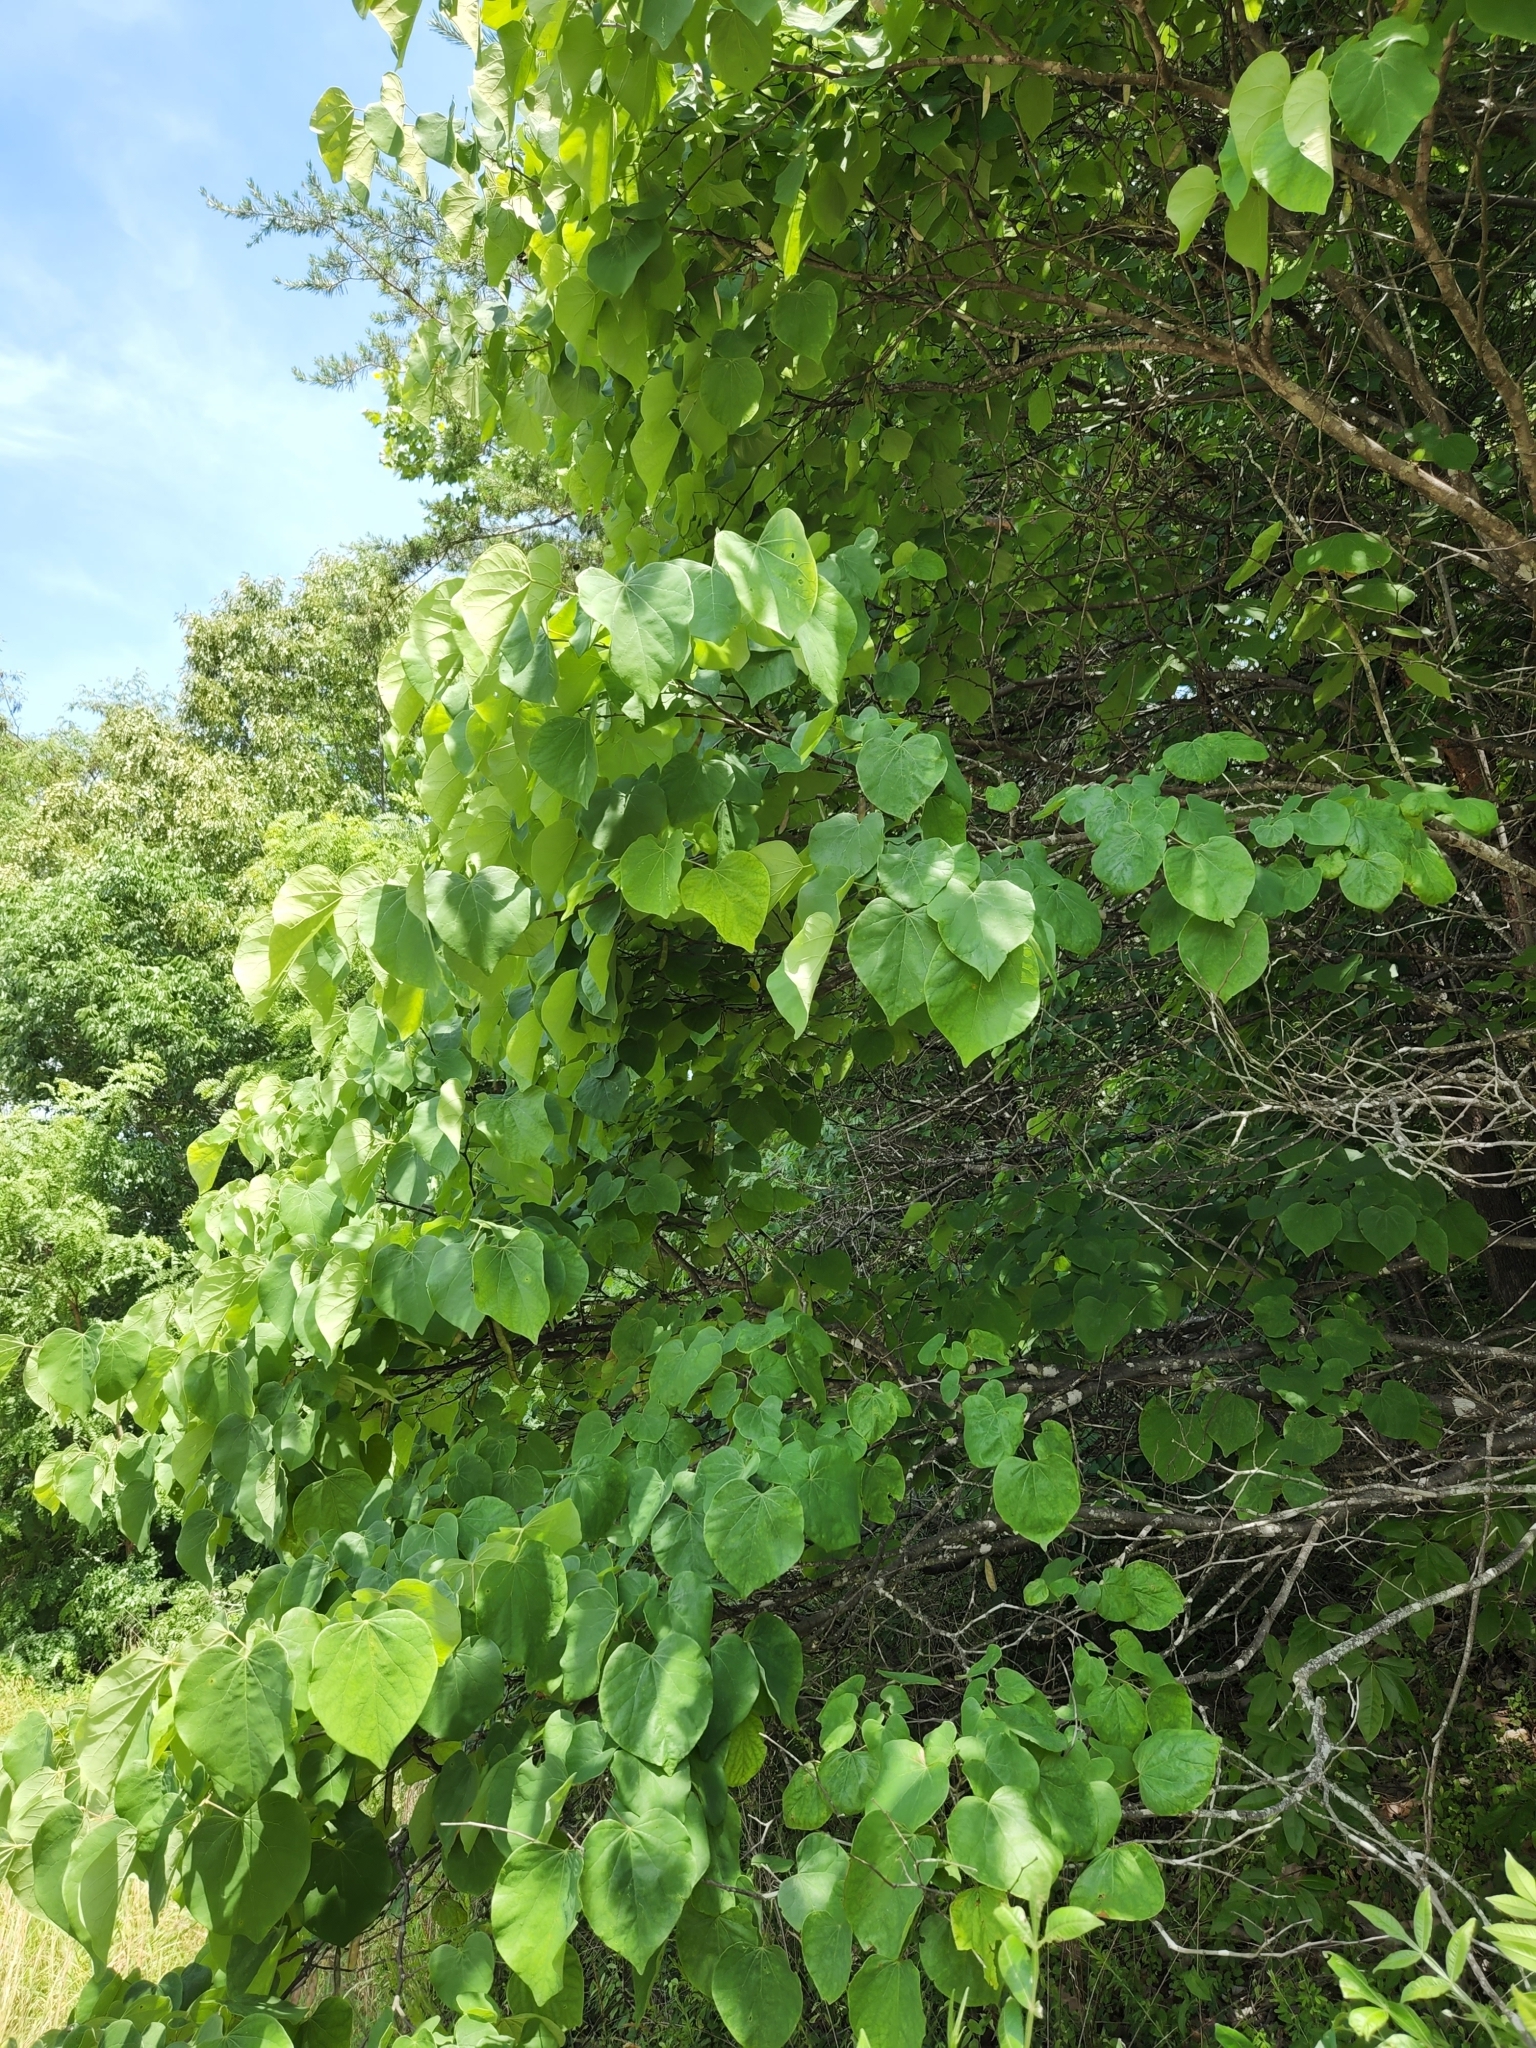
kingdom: Plantae
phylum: Tracheophyta
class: Magnoliopsida
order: Fabales
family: Fabaceae
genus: Cercis
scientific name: Cercis canadensis
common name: Eastern redbud
